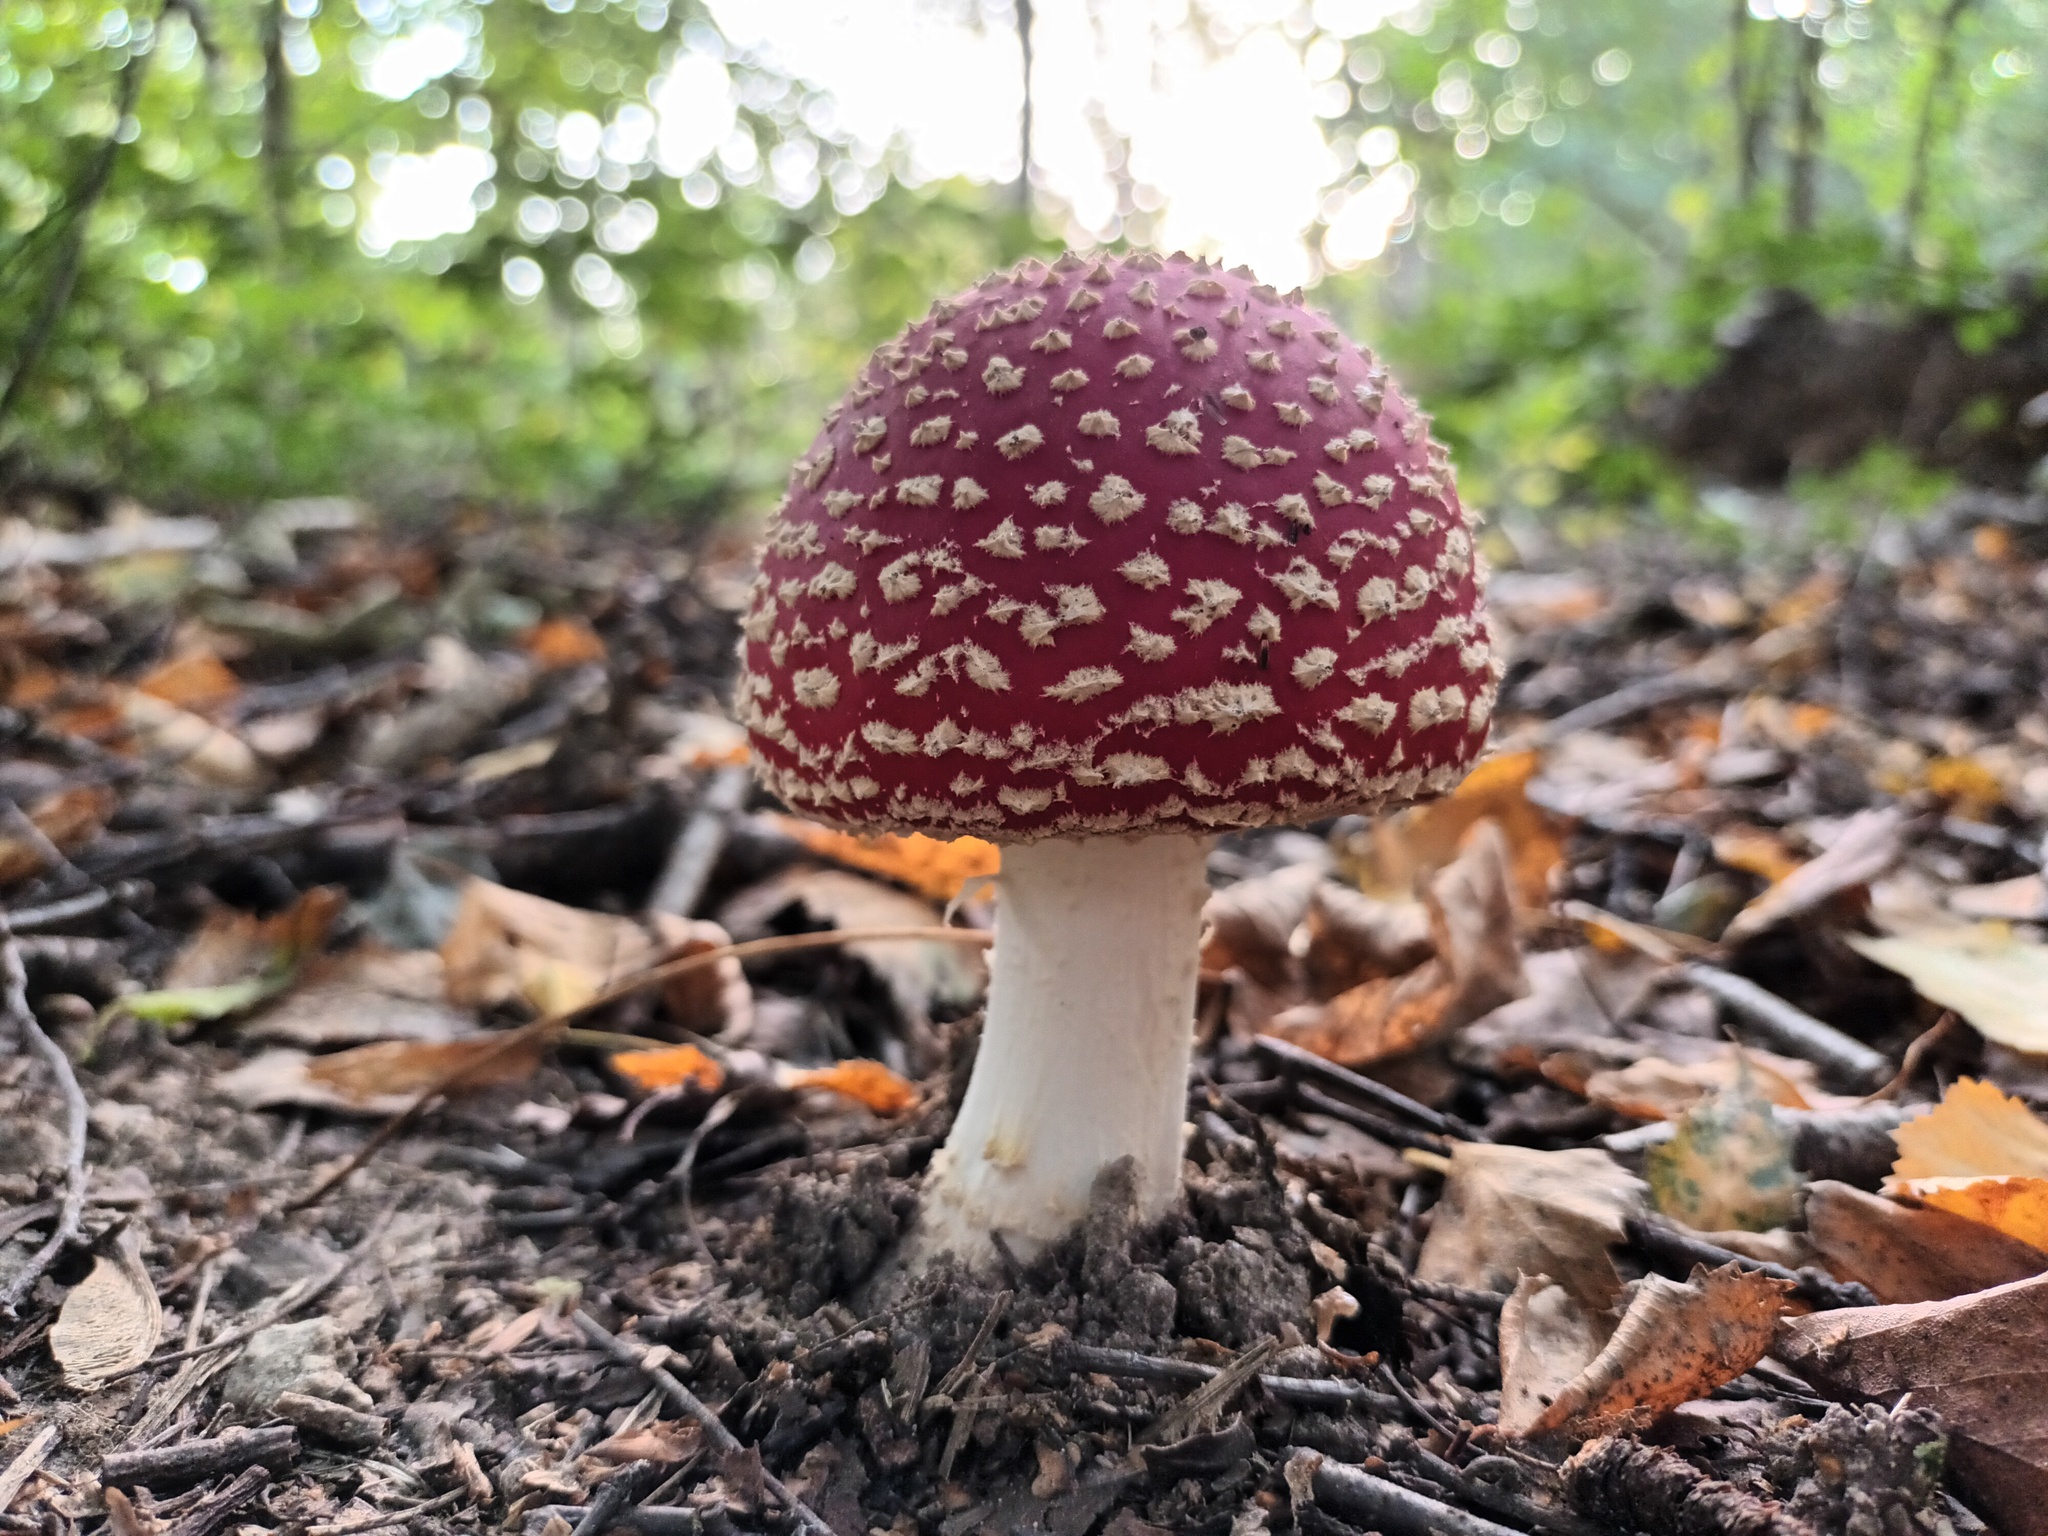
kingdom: Fungi
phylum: Basidiomycota
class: Agaricomycetes
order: Agaricales
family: Amanitaceae
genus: Amanita
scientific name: Amanita muscaria
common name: Fly agaric
